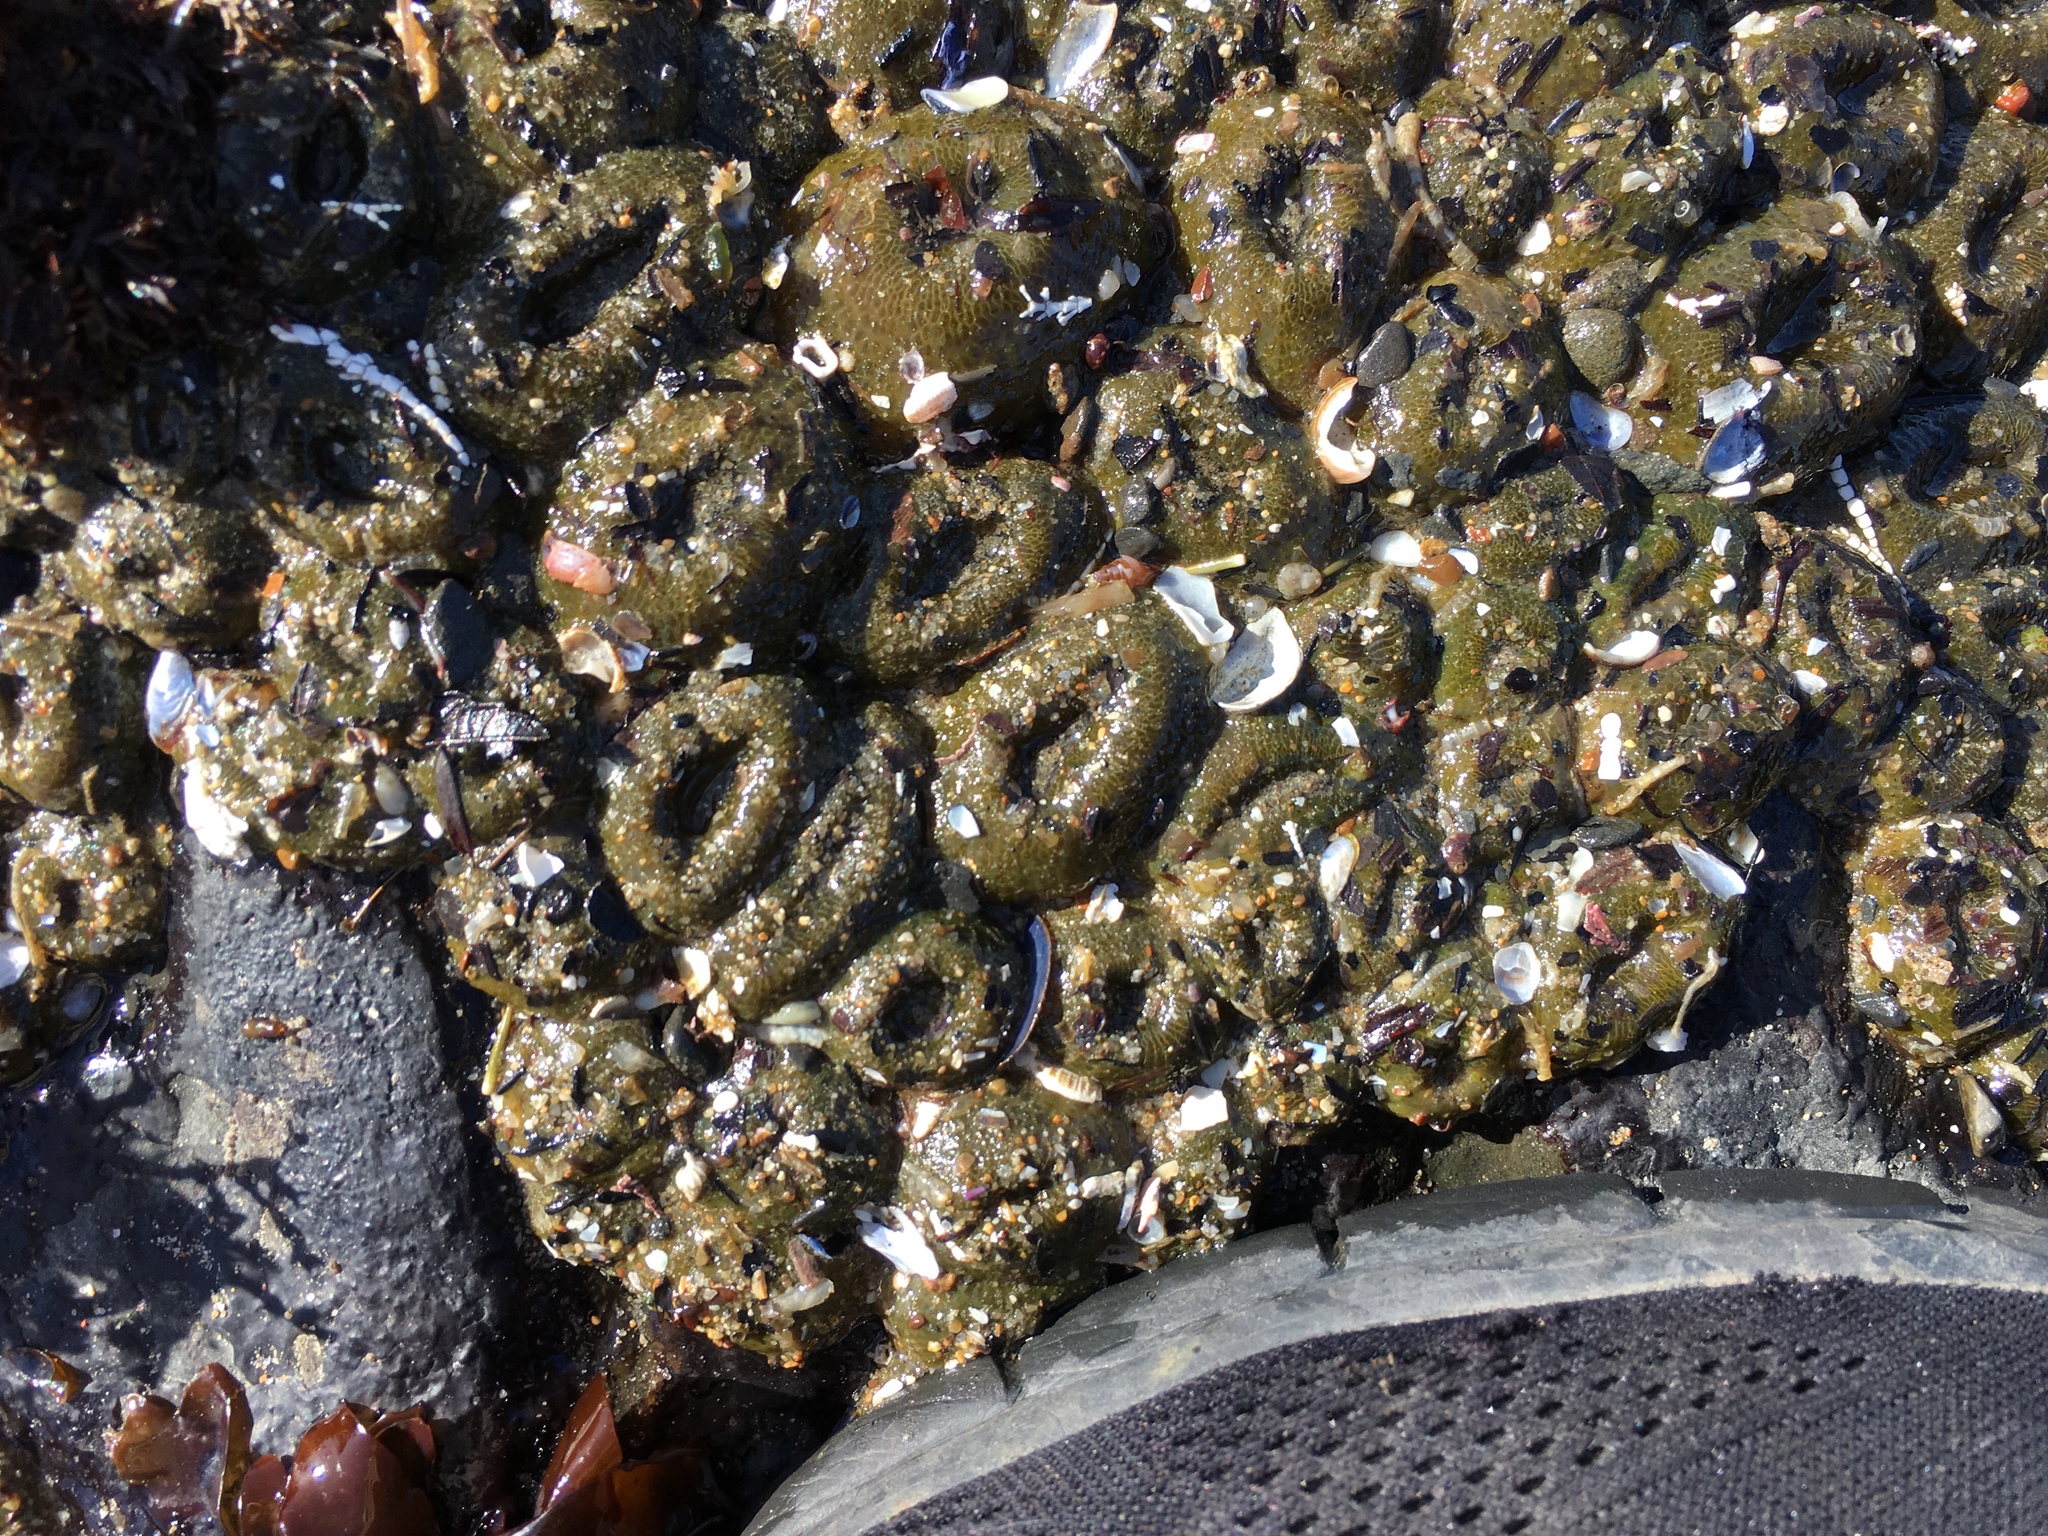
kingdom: Animalia
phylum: Cnidaria
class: Anthozoa
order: Actiniaria
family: Actiniidae
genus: Anthopleura
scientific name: Anthopleura elegantissima
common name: Clonal anemone
